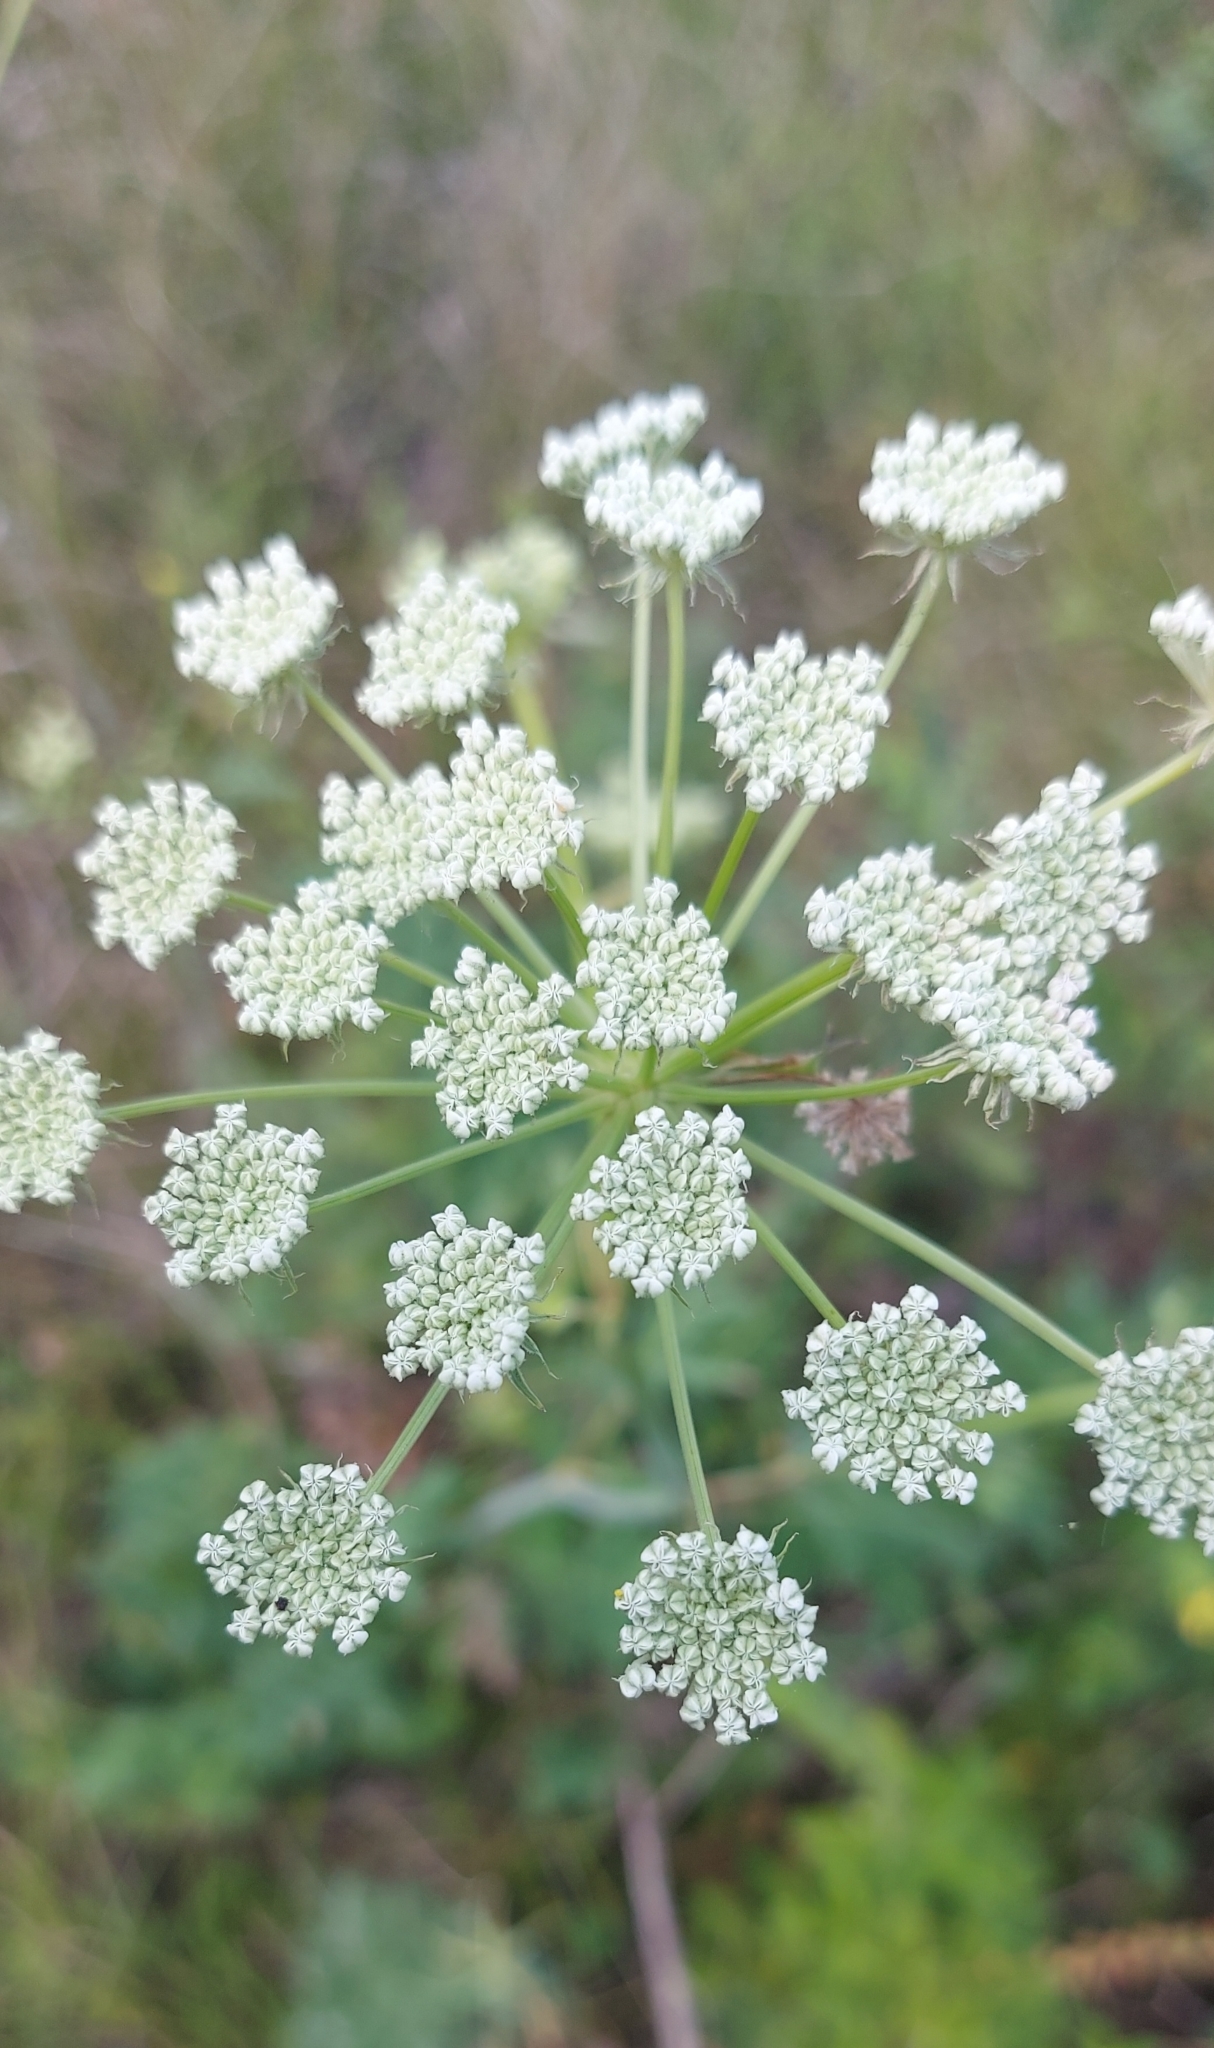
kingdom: Plantae
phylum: Tracheophyta
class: Magnoliopsida
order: Apiales
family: Apiaceae
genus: Seseli
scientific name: Seseli libanotis
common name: Mooncarrot
